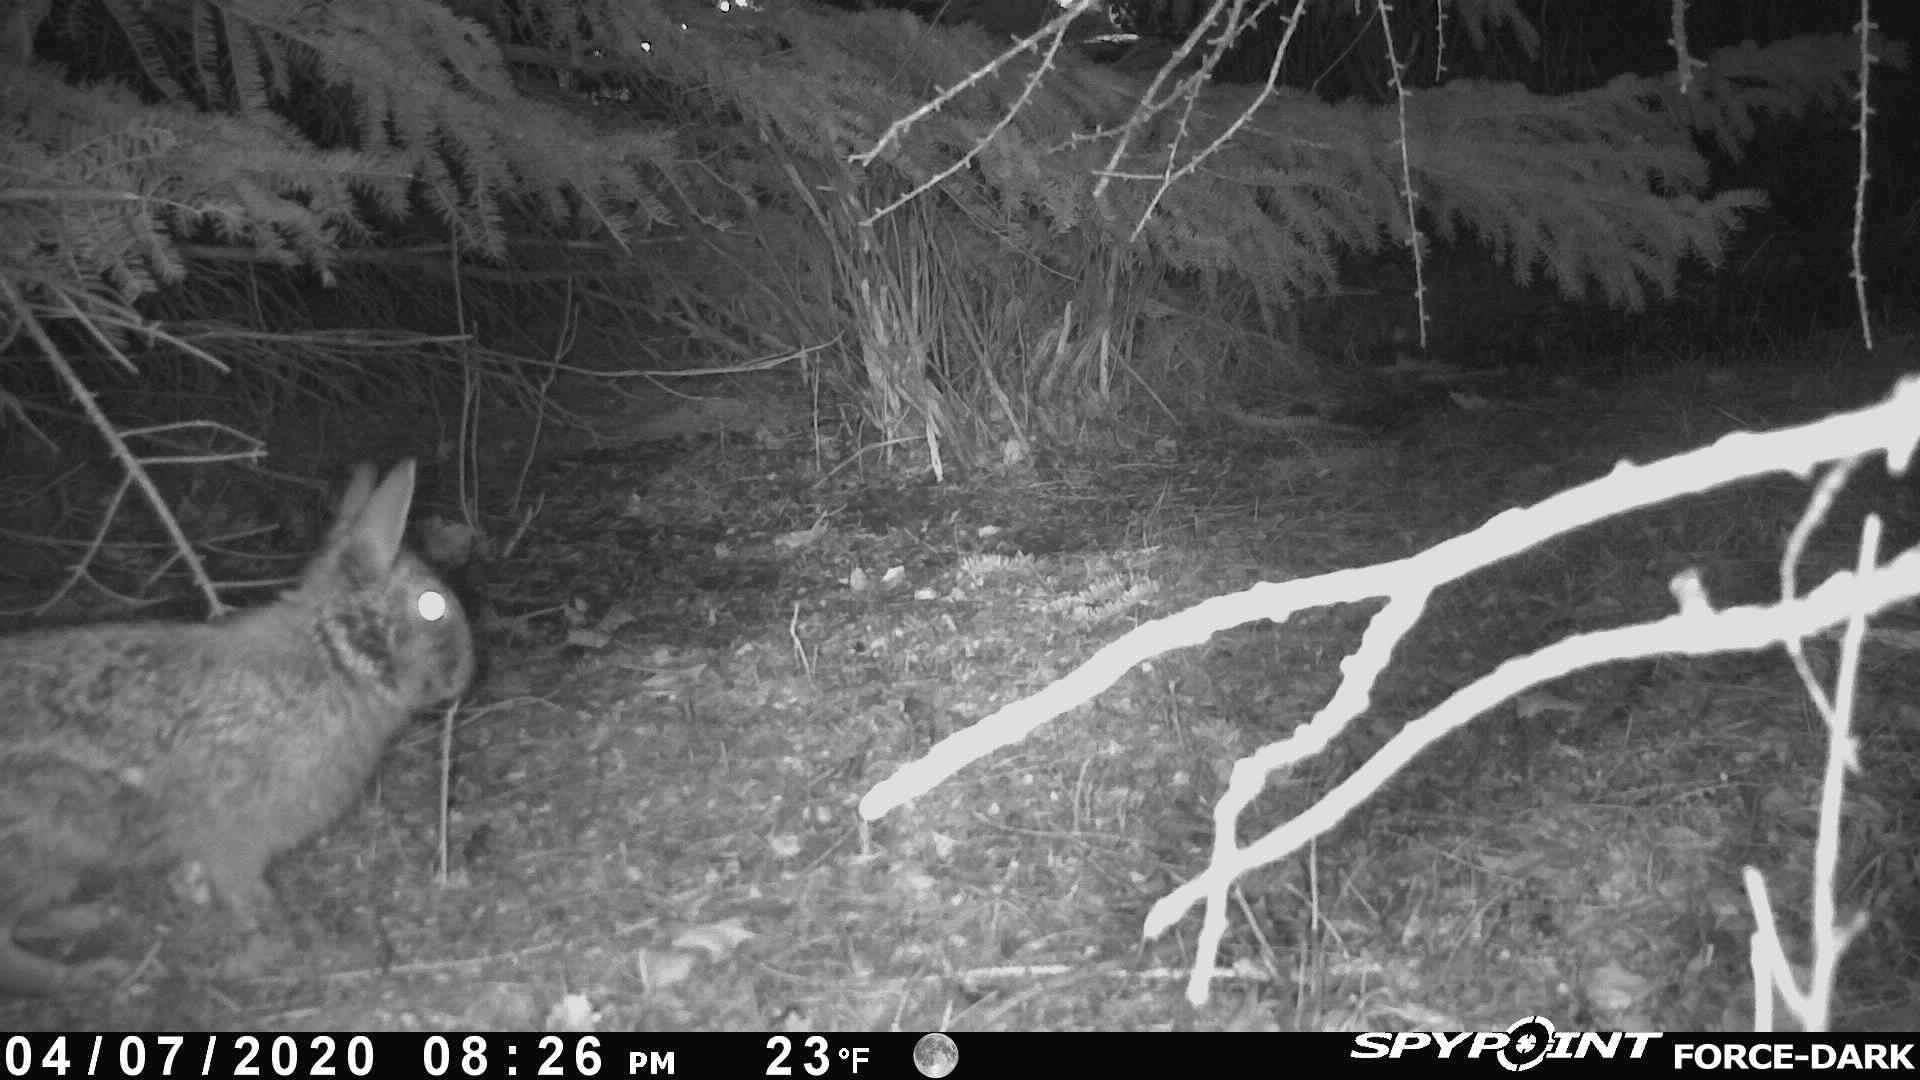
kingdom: Animalia
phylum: Chordata
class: Mammalia
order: Lagomorpha
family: Leporidae
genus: Sylvilagus
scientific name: Sylvilagus floridanus
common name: Eastern cottontail
